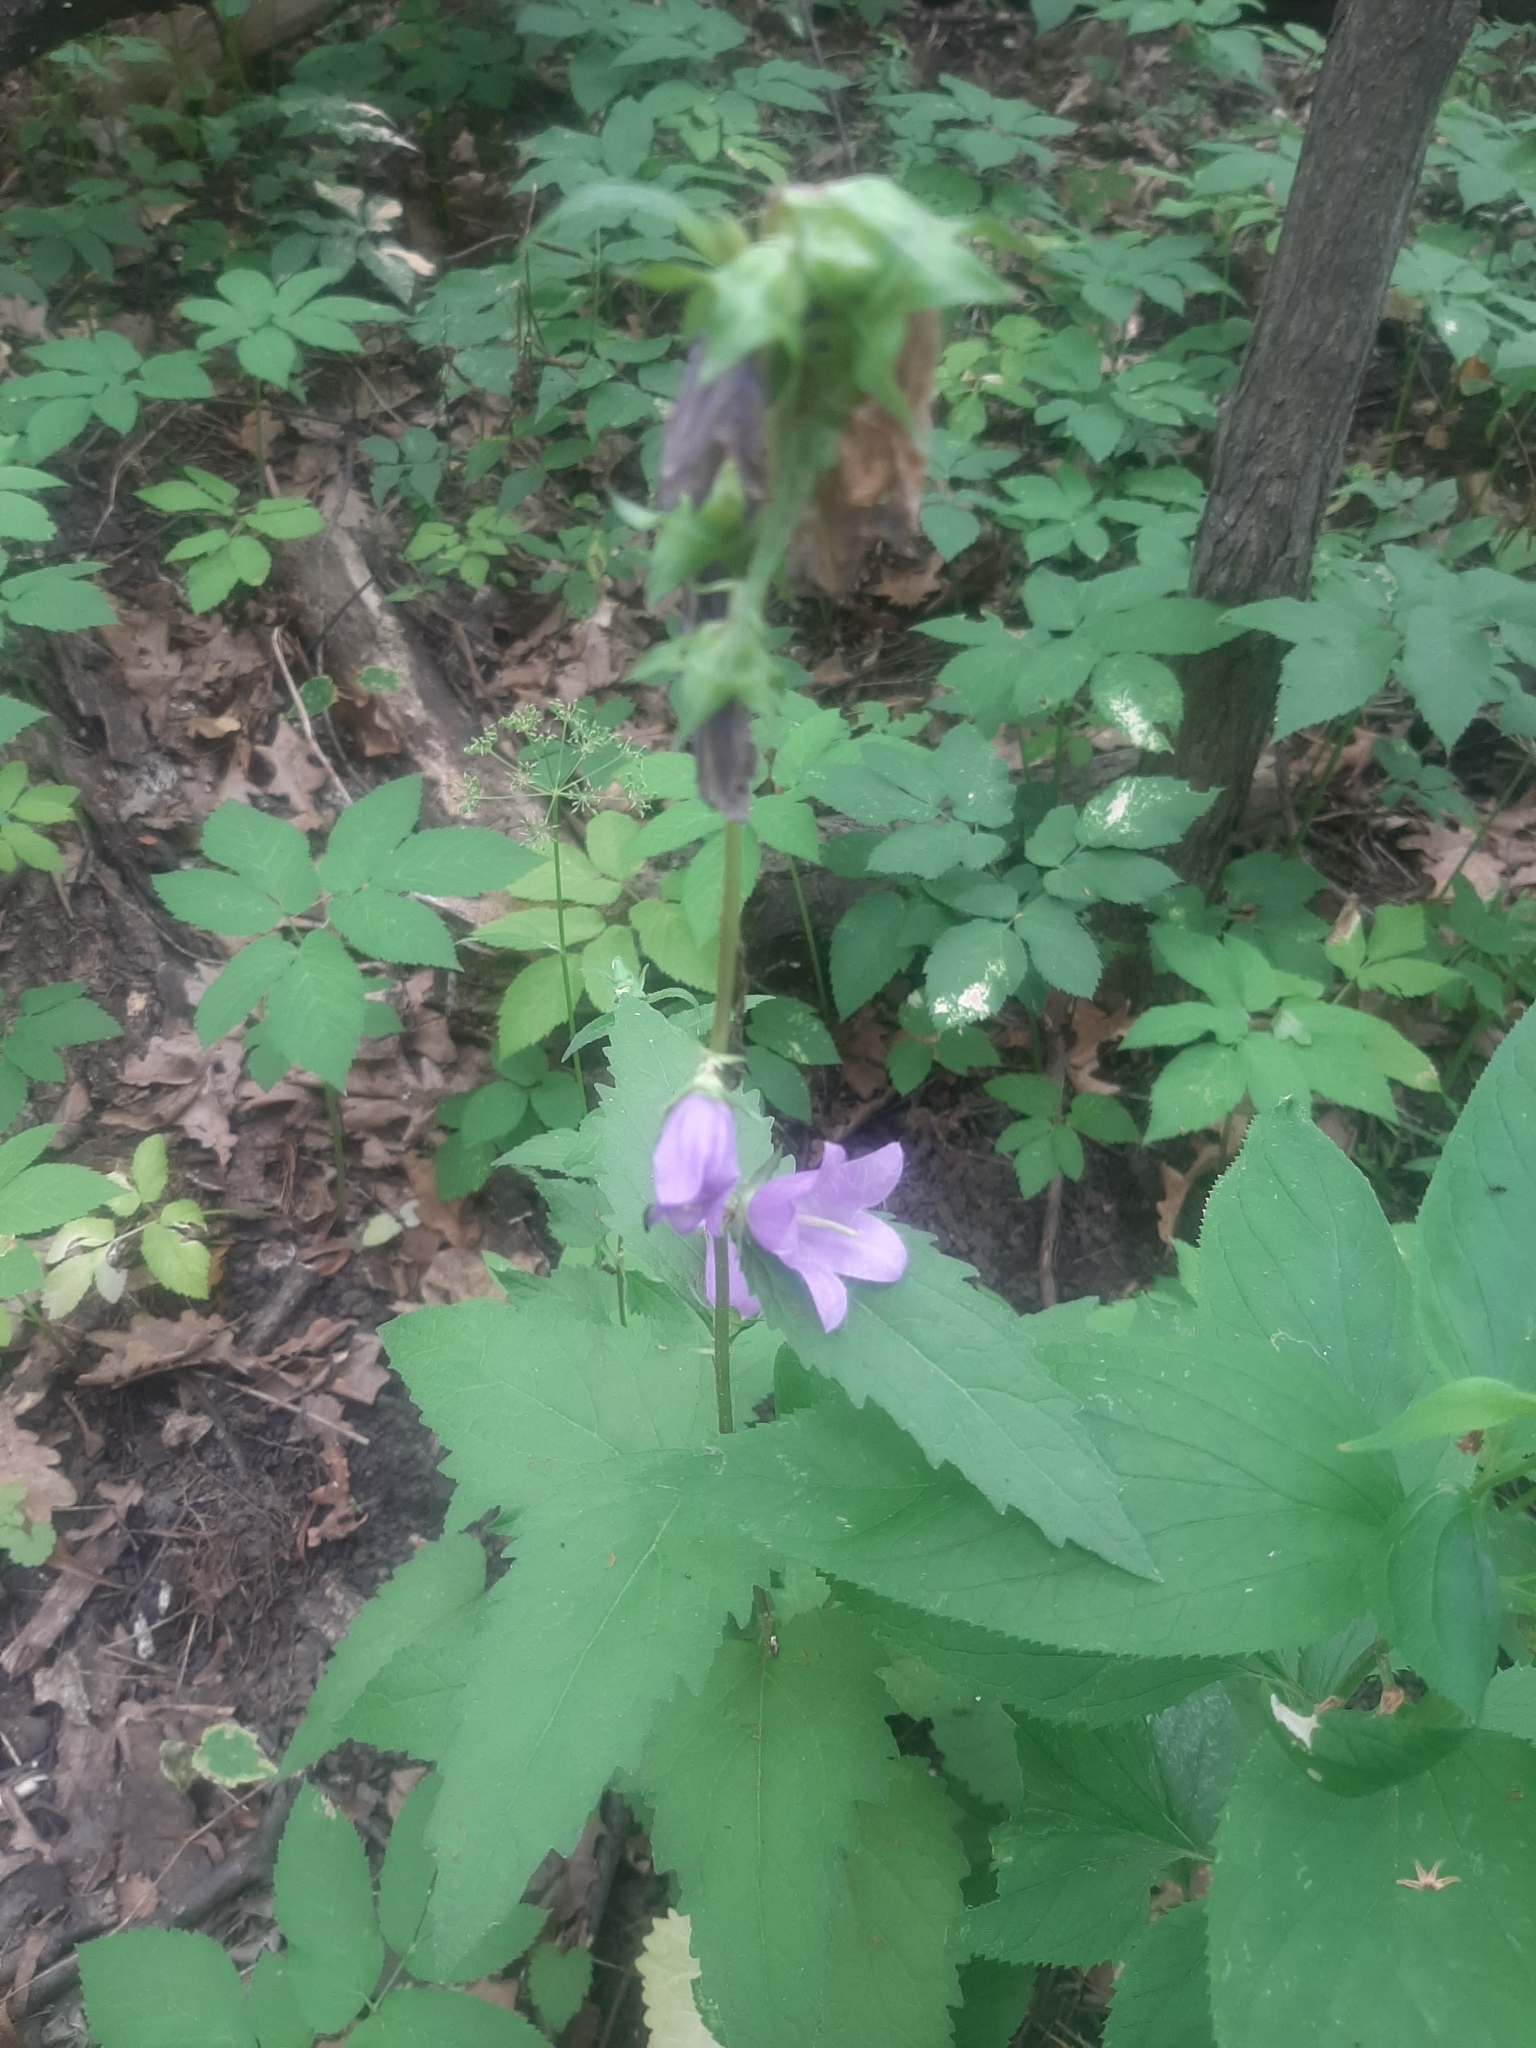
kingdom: Plantae
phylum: Tracheophyta
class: Magnoliopsida
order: Asterales
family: Campanulaceae
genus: Campanula
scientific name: Campanula trachelium
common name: Nettle-leaved bellflower
